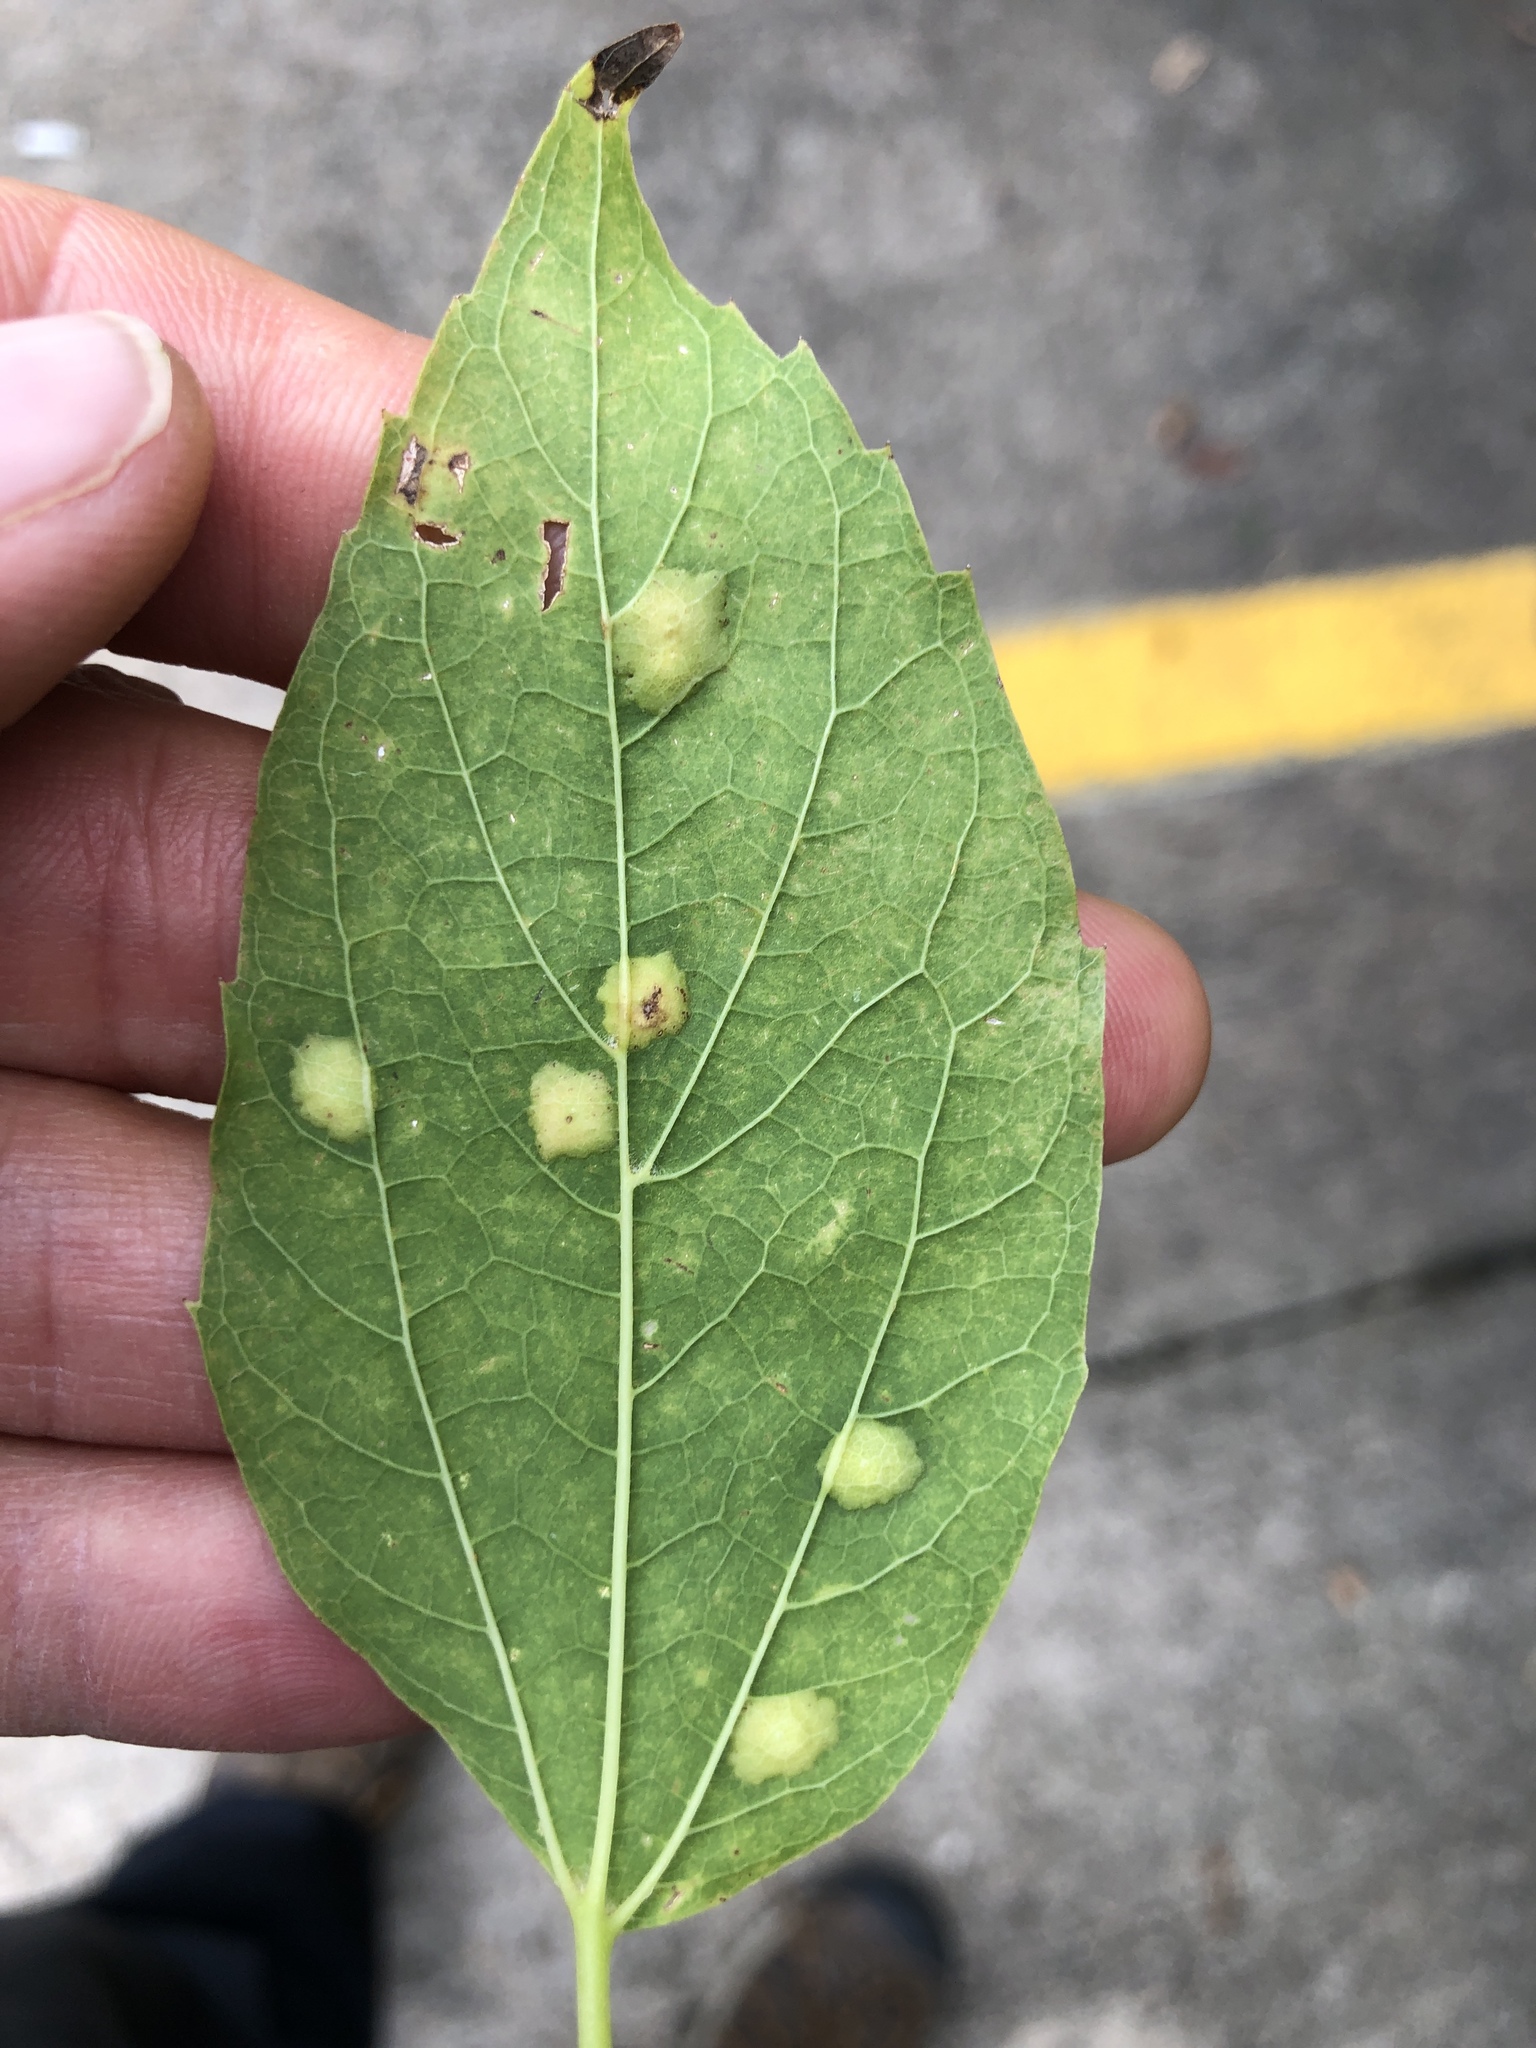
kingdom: Animalia
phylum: Arthropoda
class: Insecta
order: Hemiptera
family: Aphalaridae
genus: Pachypsylla
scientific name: Pachypsylla celtidisvesicula
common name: Hackberry blister gall psyllid
